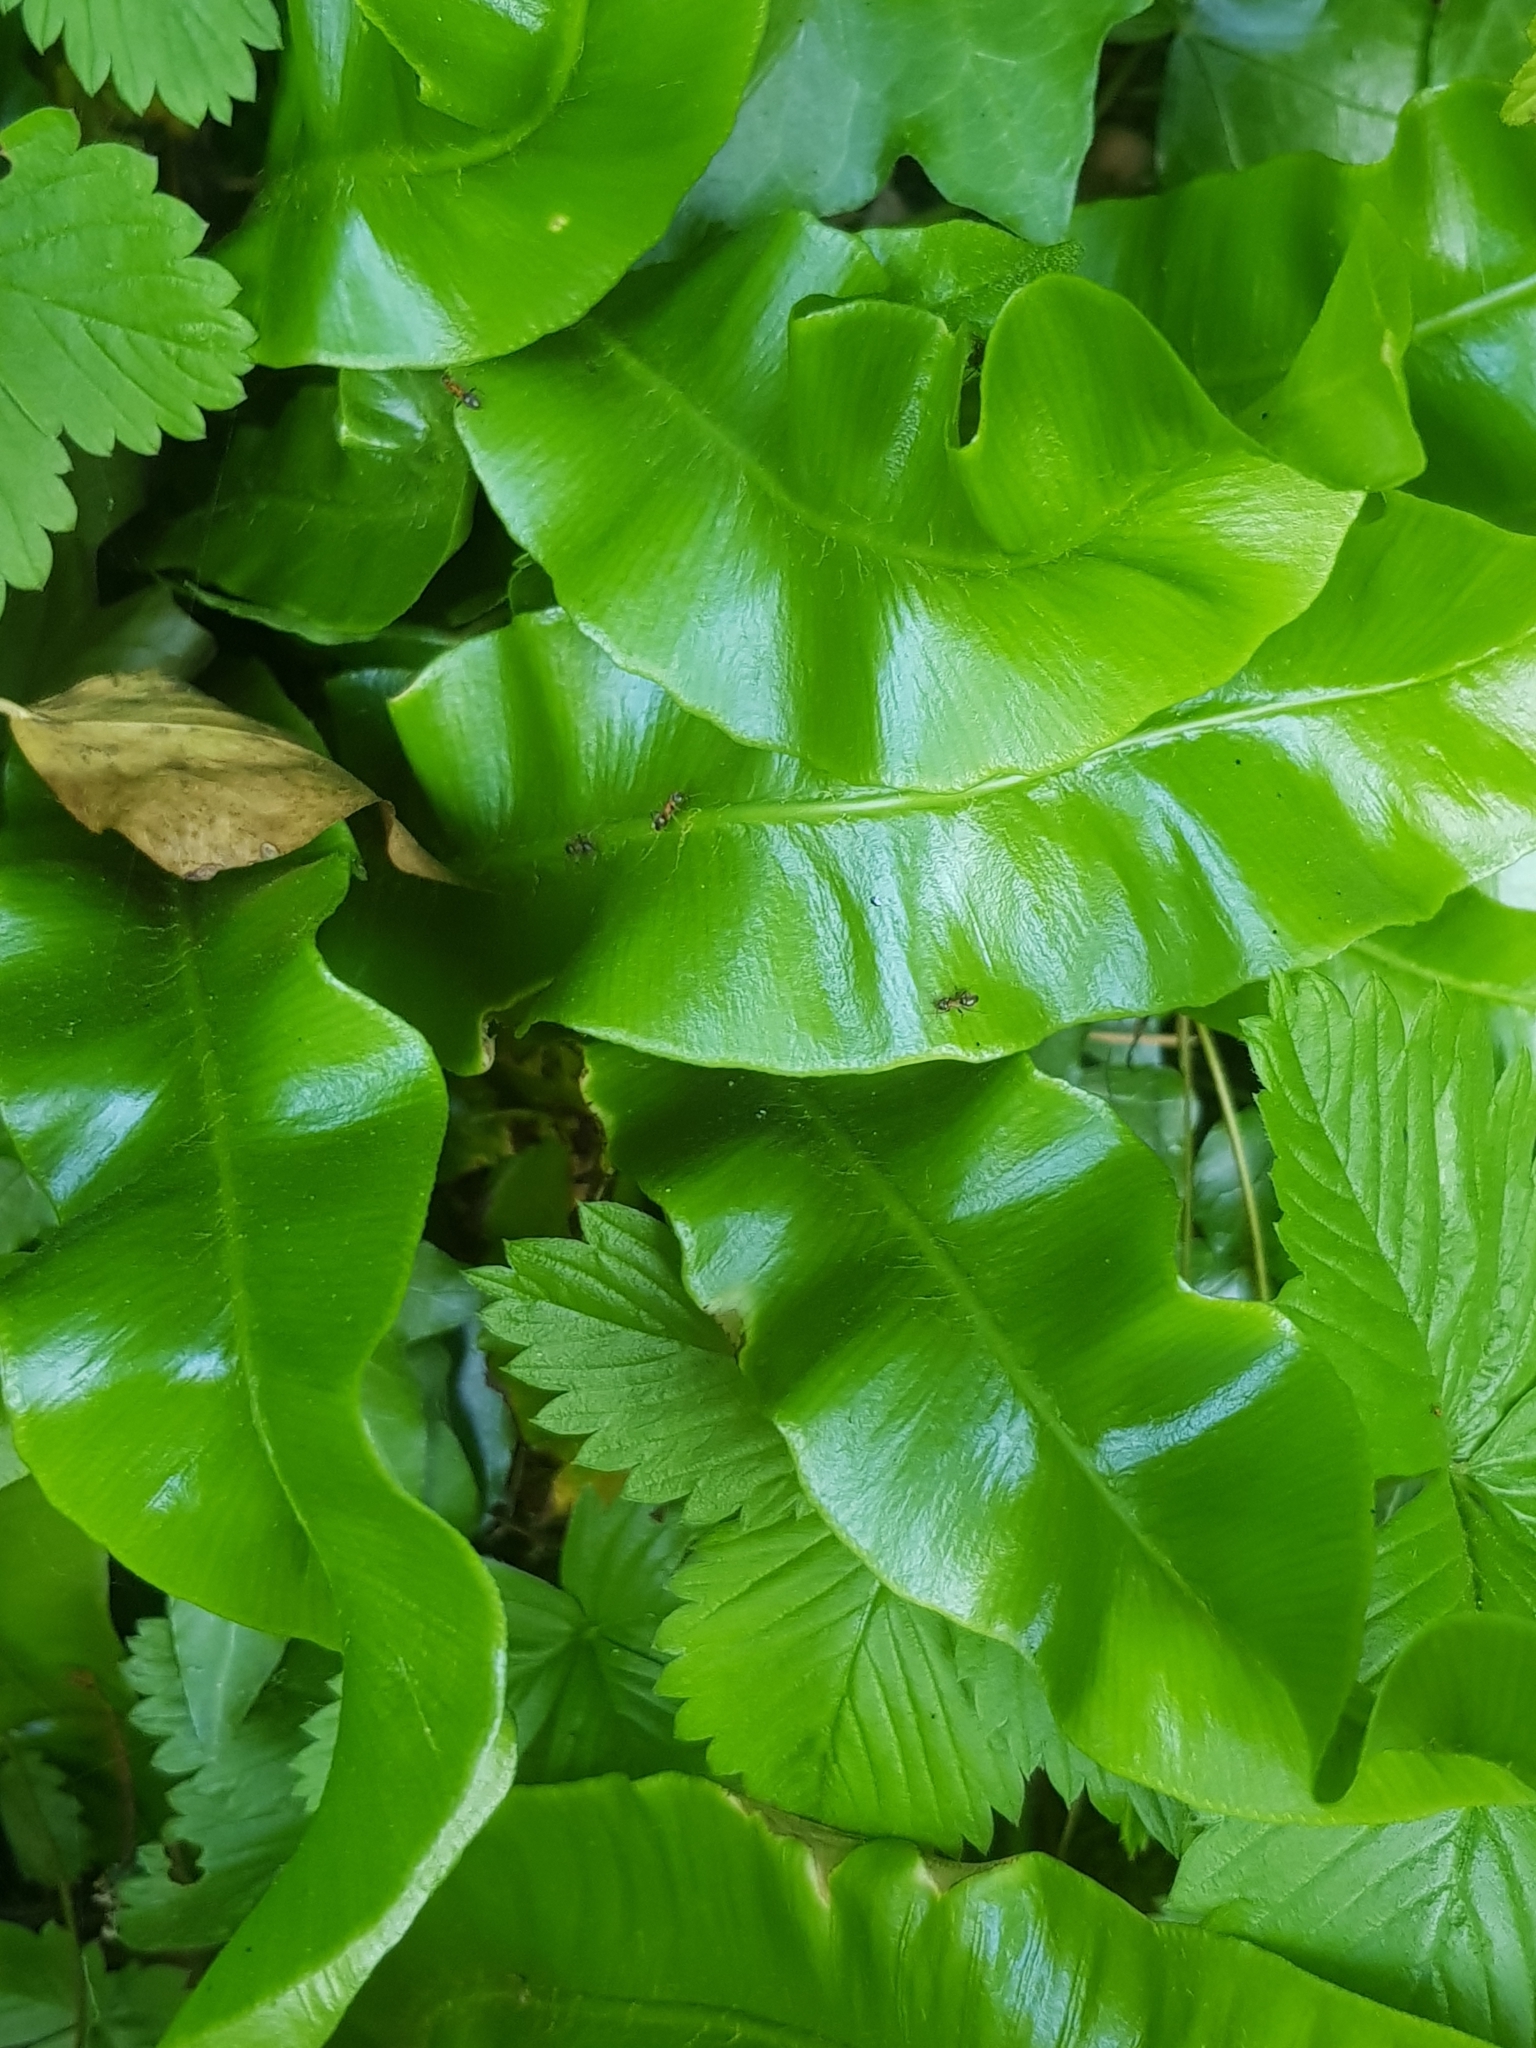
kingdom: Plantae
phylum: Tracheophyta
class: Polypodiopsida
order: Polypodiales
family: Aspleniaceae
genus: Asplenium
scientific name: Asplenium scolopendrium
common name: Hart's-tongue fern
